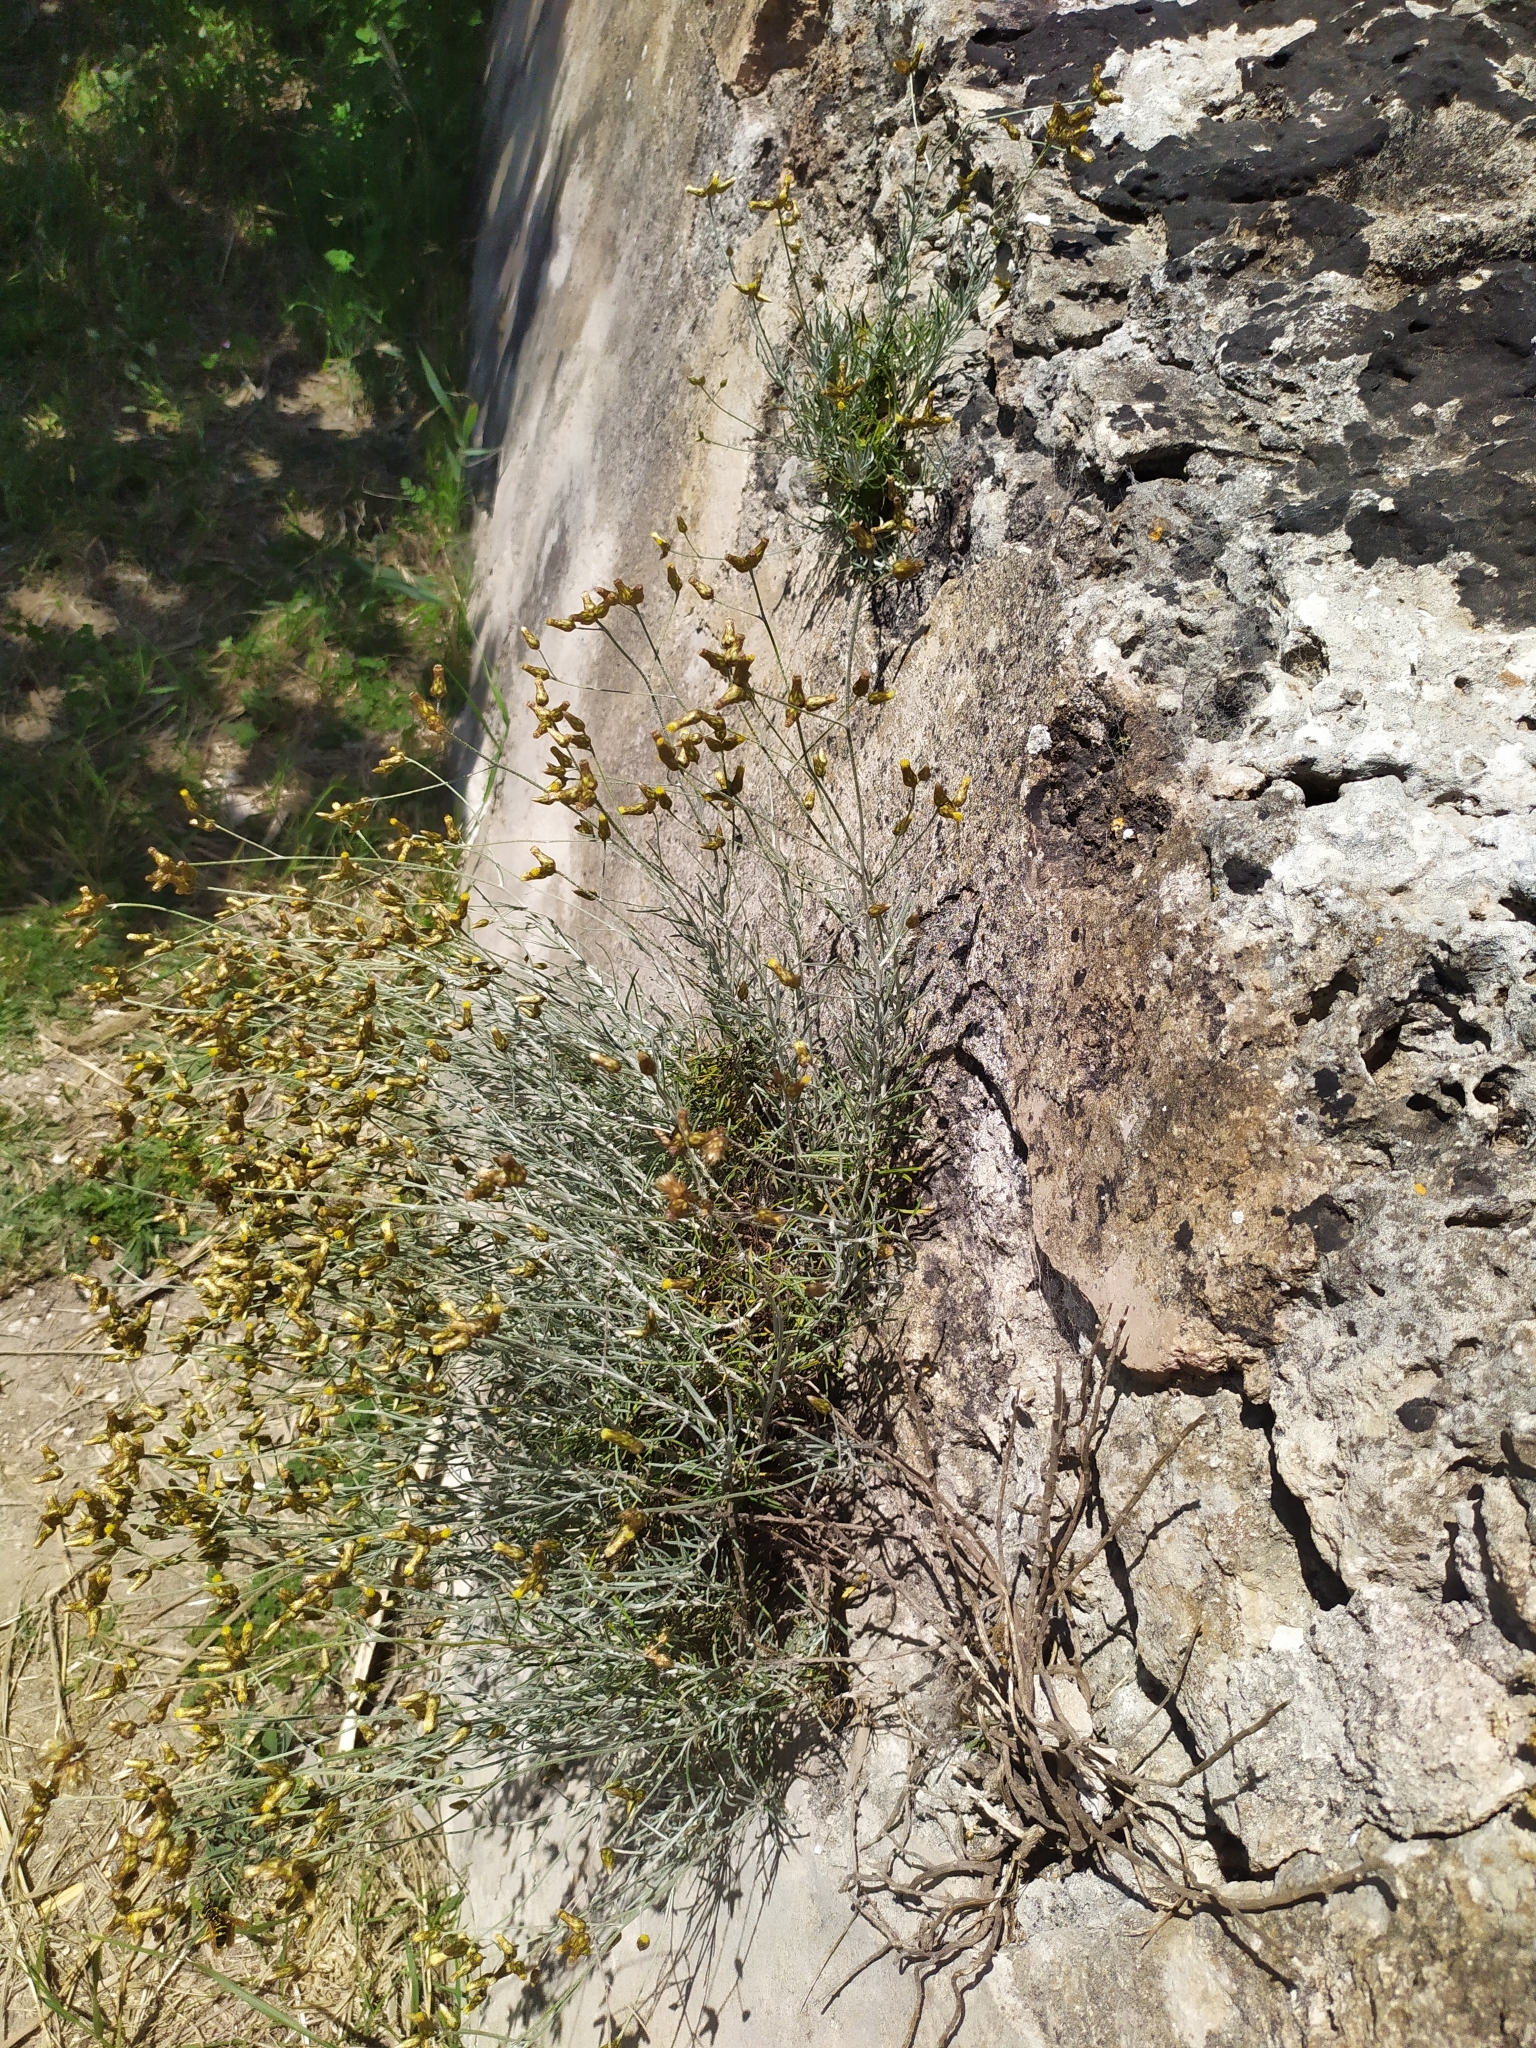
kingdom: Plantae
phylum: Tracheophyta
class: Magnoliopsida
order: Asterales
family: Asteraceae
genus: Phagnalon
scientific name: Phagnalon sordidum
